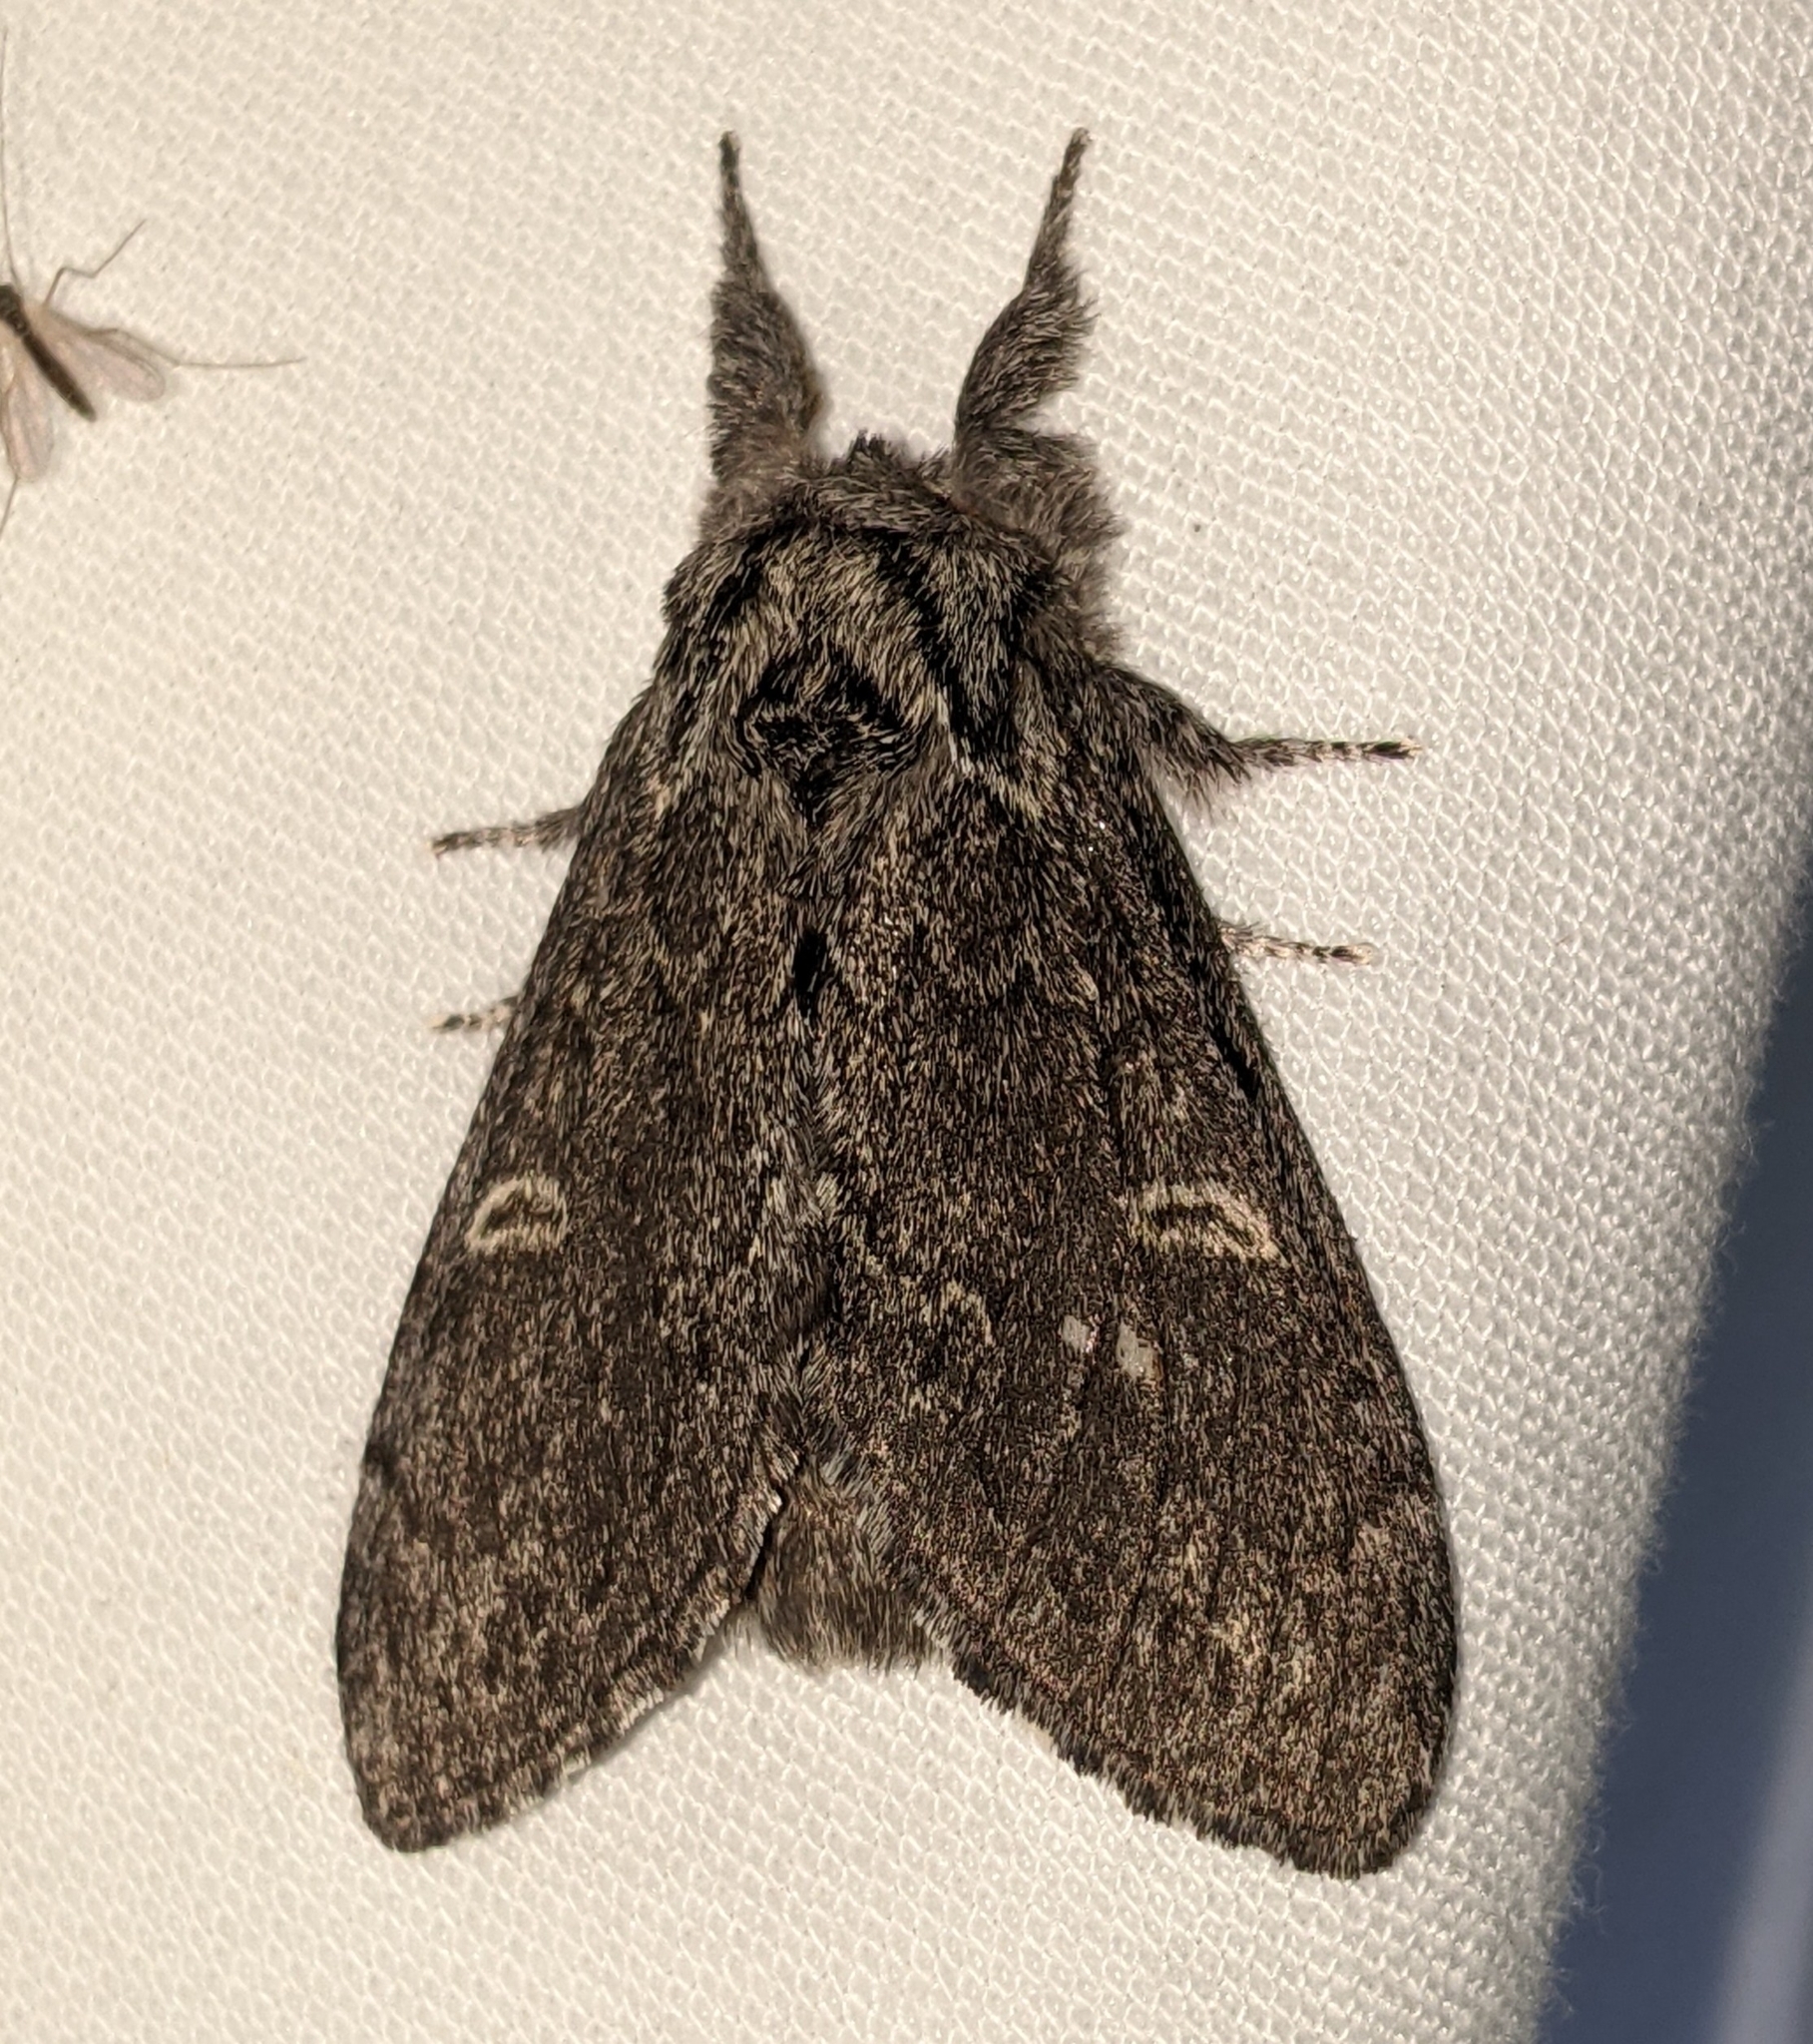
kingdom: Animalia
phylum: Arthropoda
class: Insecta
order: Lepidoptera
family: Notodontidae
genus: Notodonta
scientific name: Notodonta torva
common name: Large dark prominent
